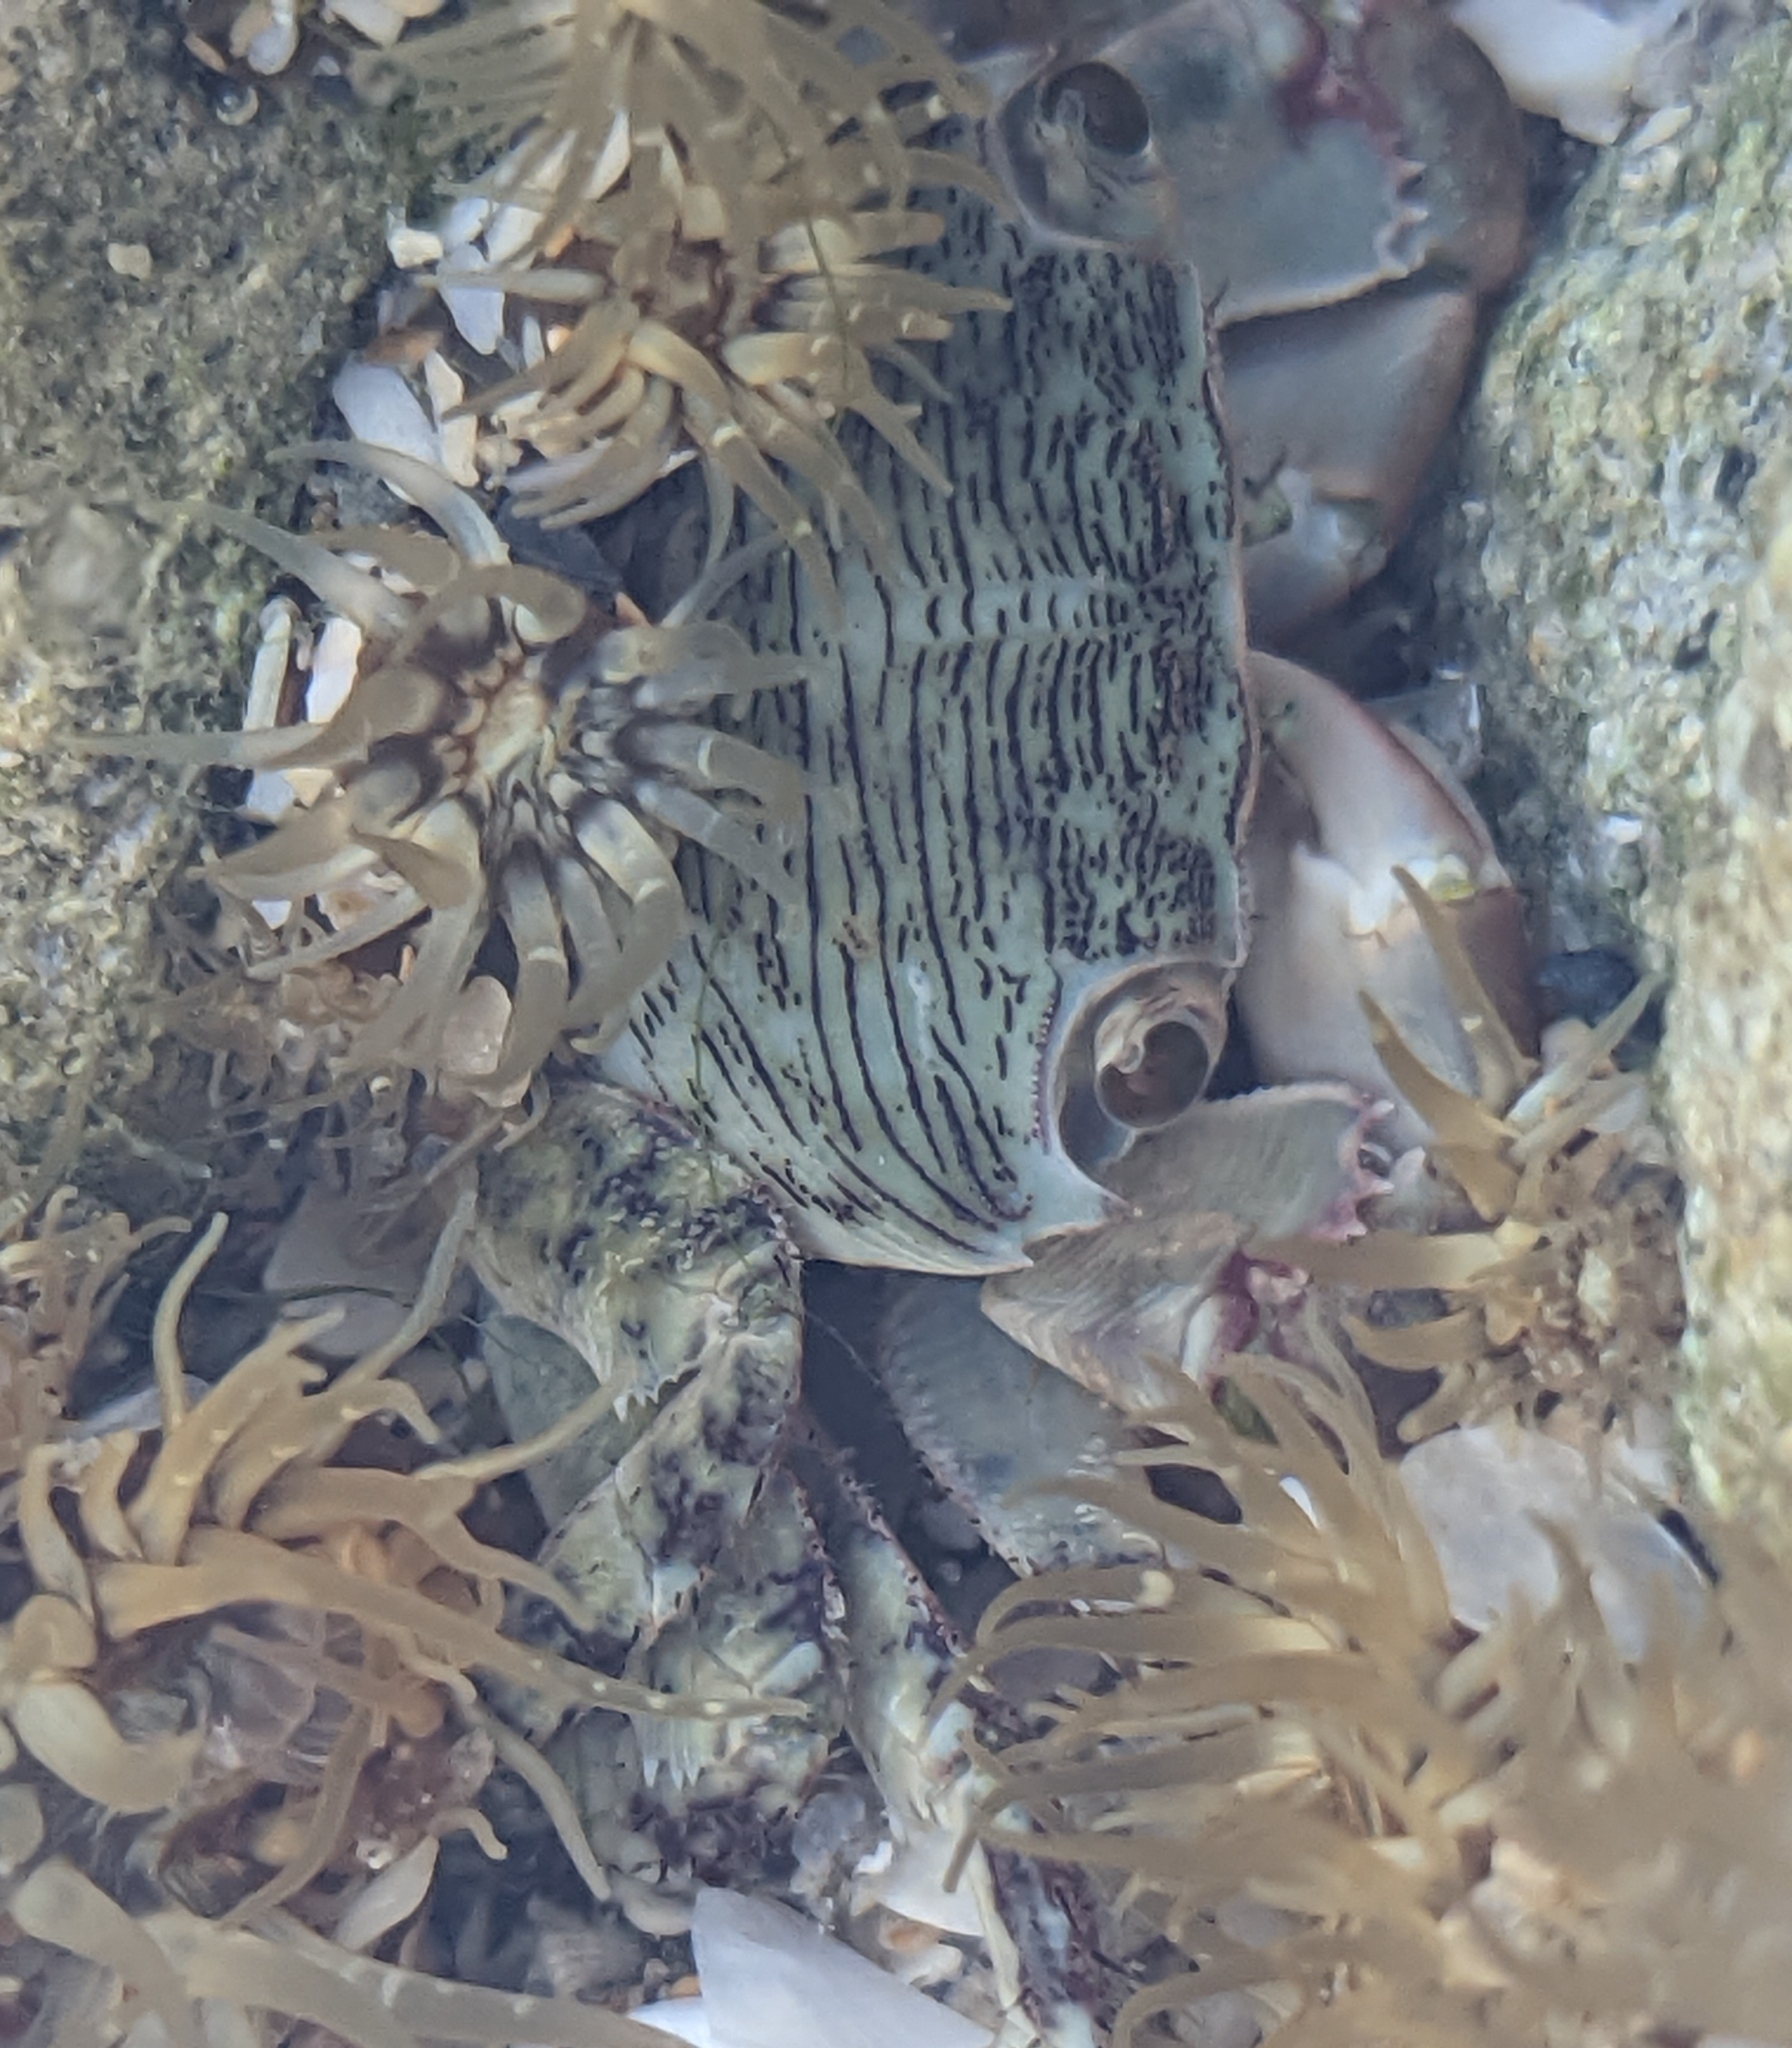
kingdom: Animalia
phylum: Arthropoda
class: Malacostraca
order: Decapoda
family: Grapsidae
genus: Pachygrapsus
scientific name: Pachygrapsus transversus
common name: Mottled shore crab
